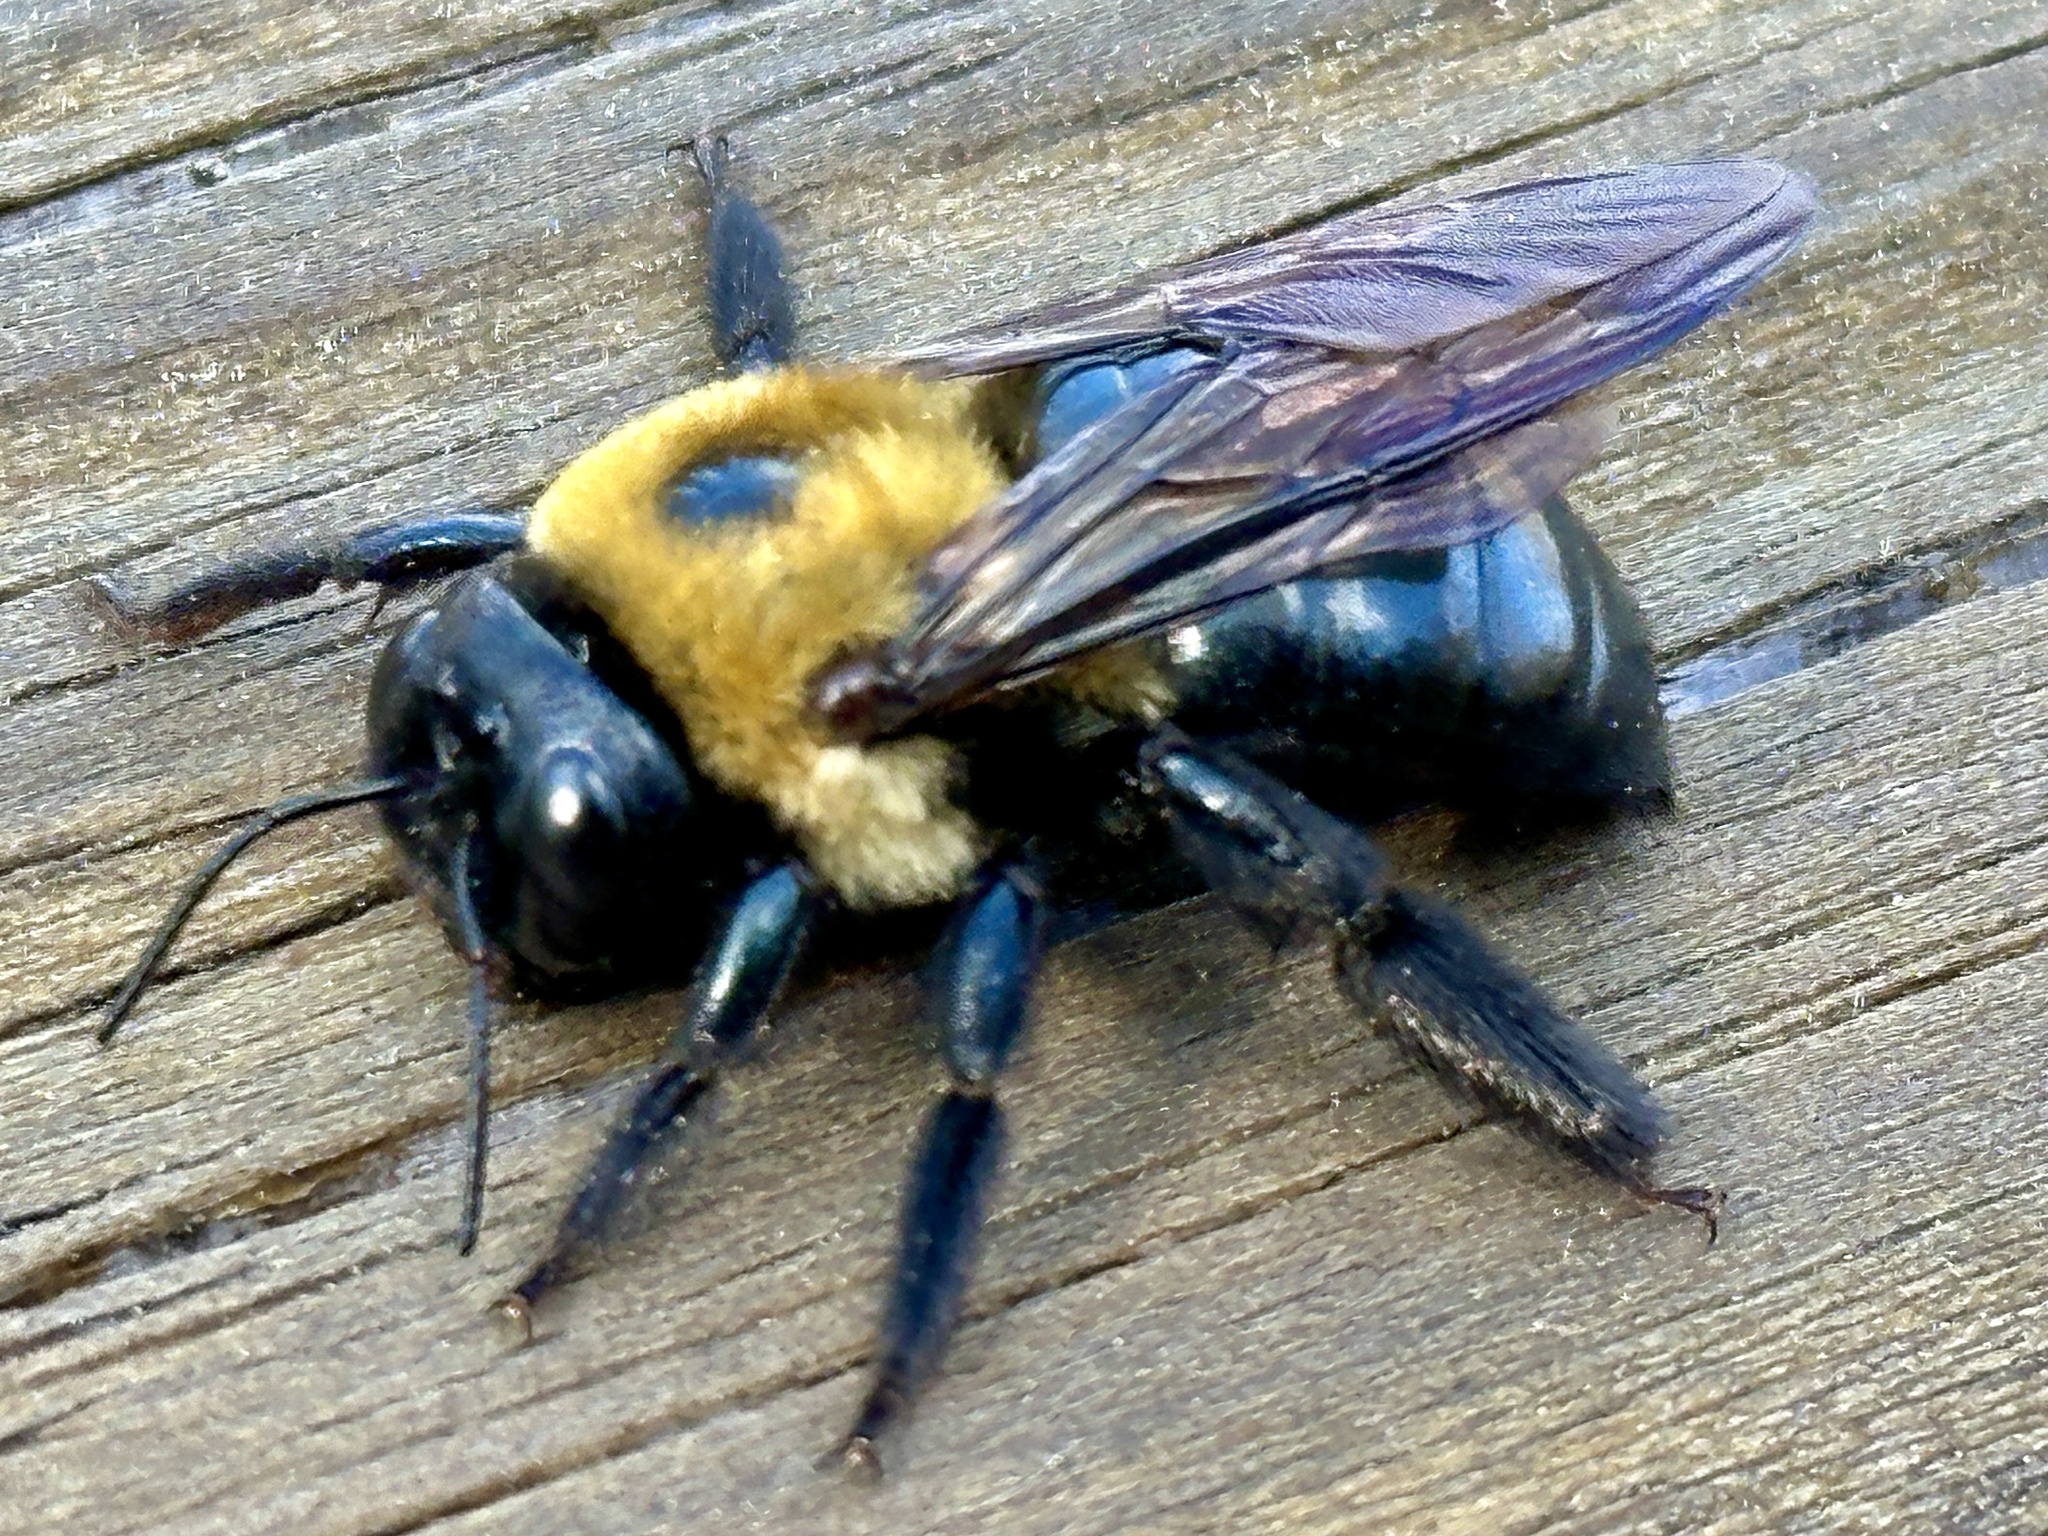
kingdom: Animalia
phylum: Arthropoda
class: Insecta
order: Hymenoptera
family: Apidae
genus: Xylocopa
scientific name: Xylocopa virginica
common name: Carpenter bee
